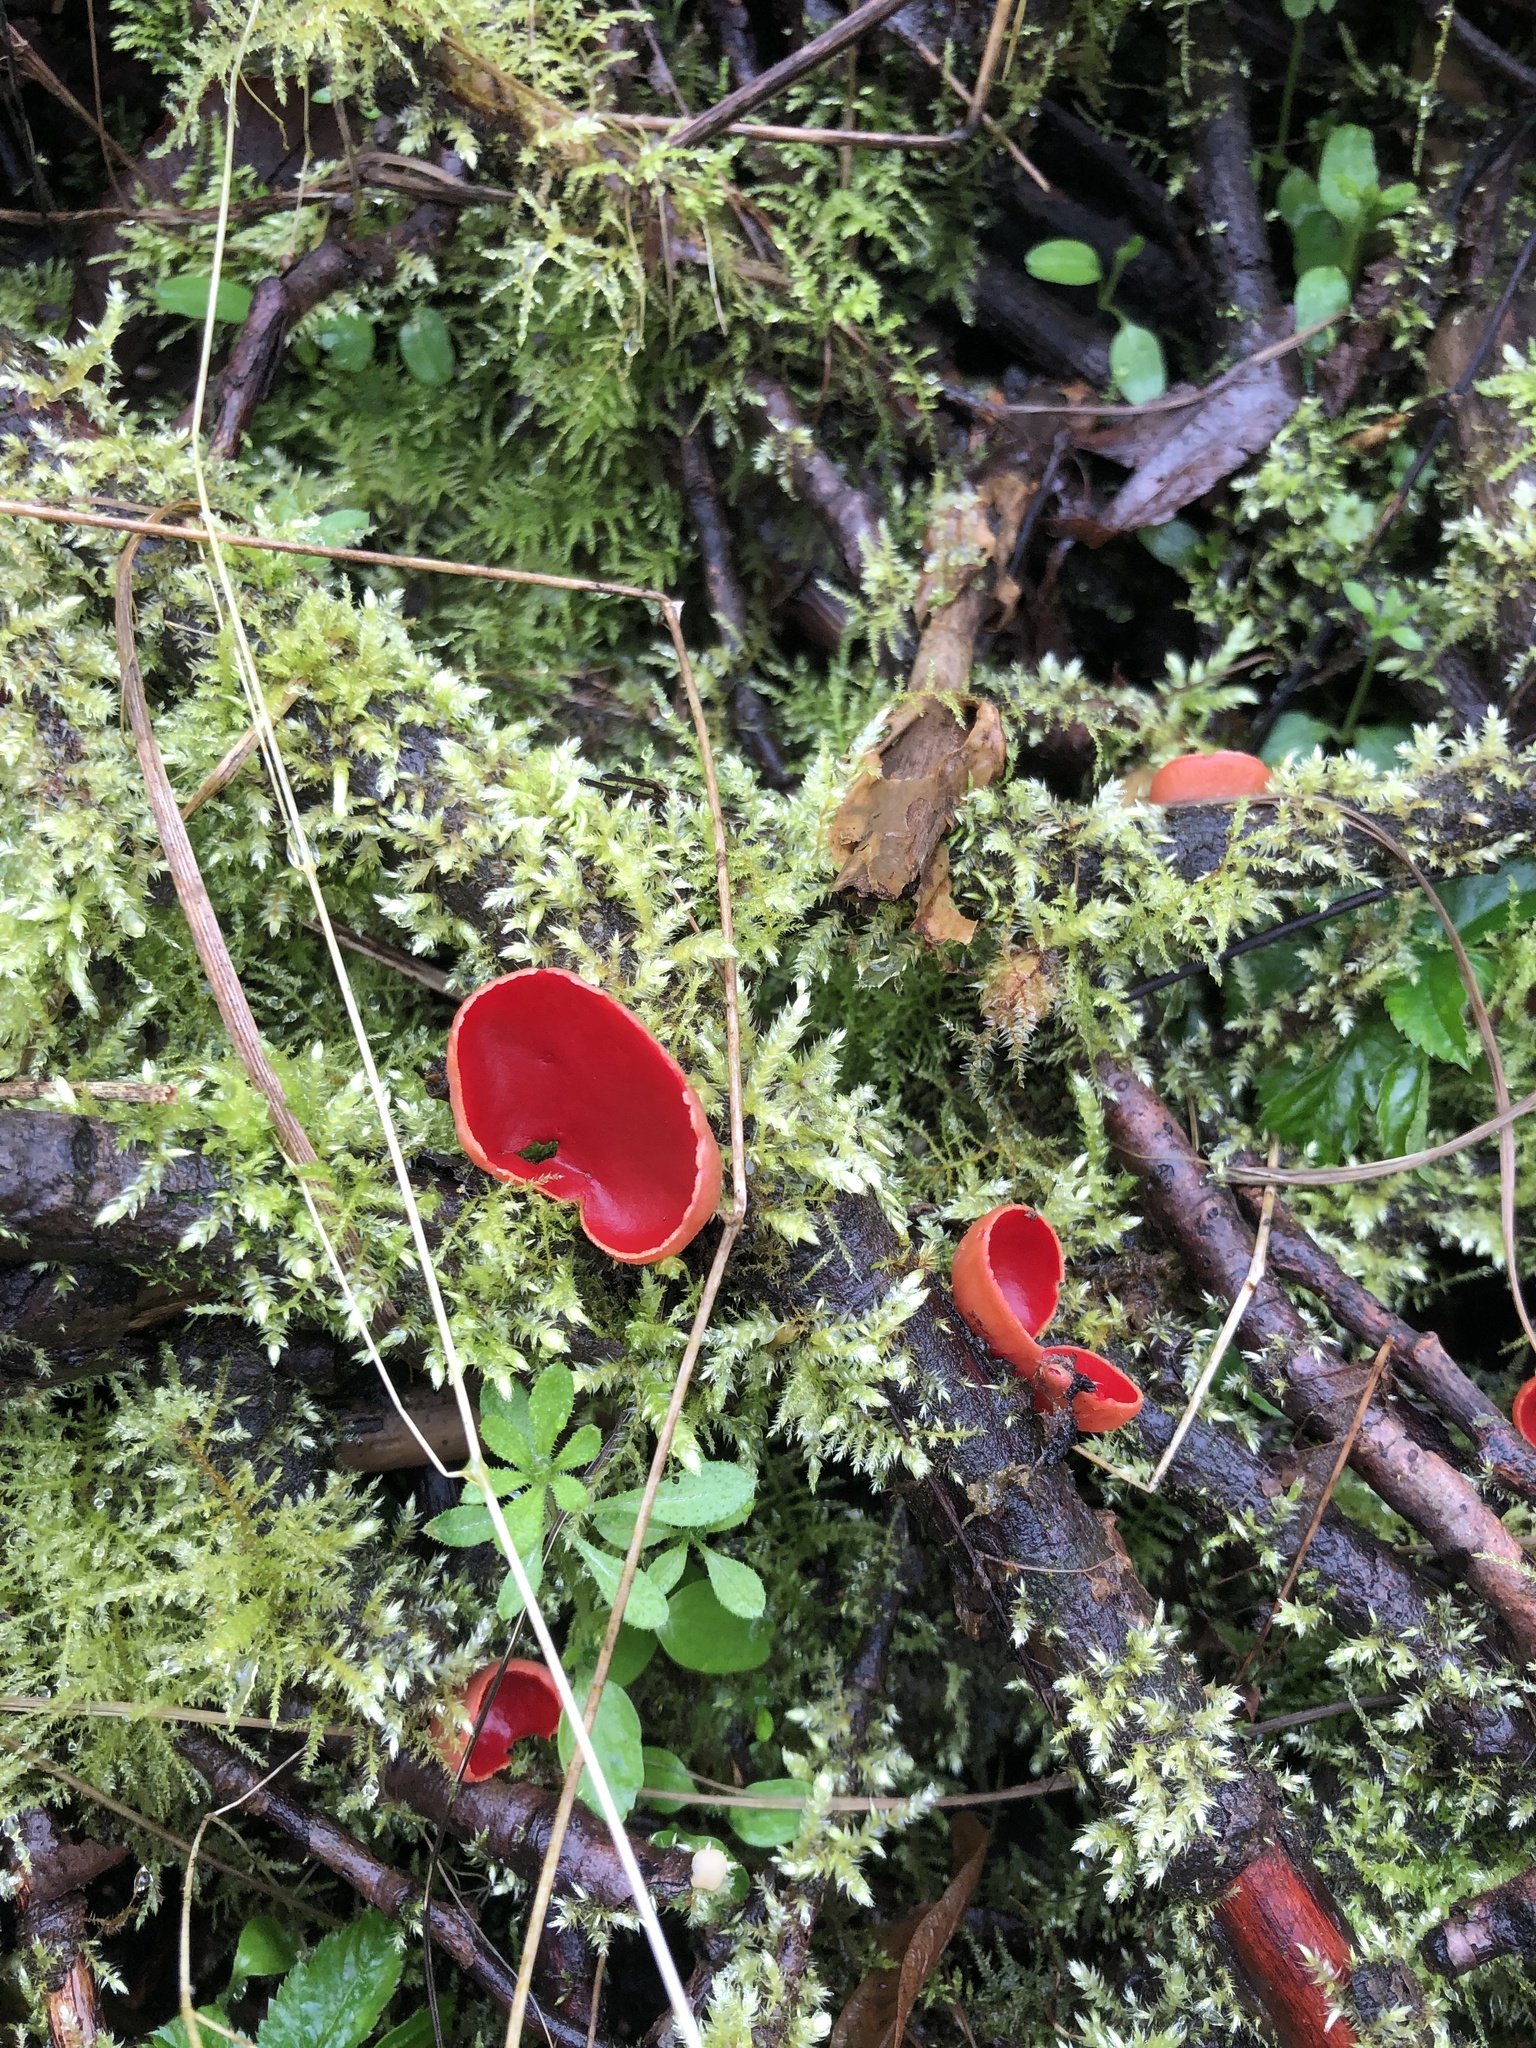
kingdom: Fungi
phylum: Ascomycota
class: Pezizomycetes
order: Pezizales
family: Sarcoscyphaceae
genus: Sarcoscypha
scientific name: Sarcoscypha
